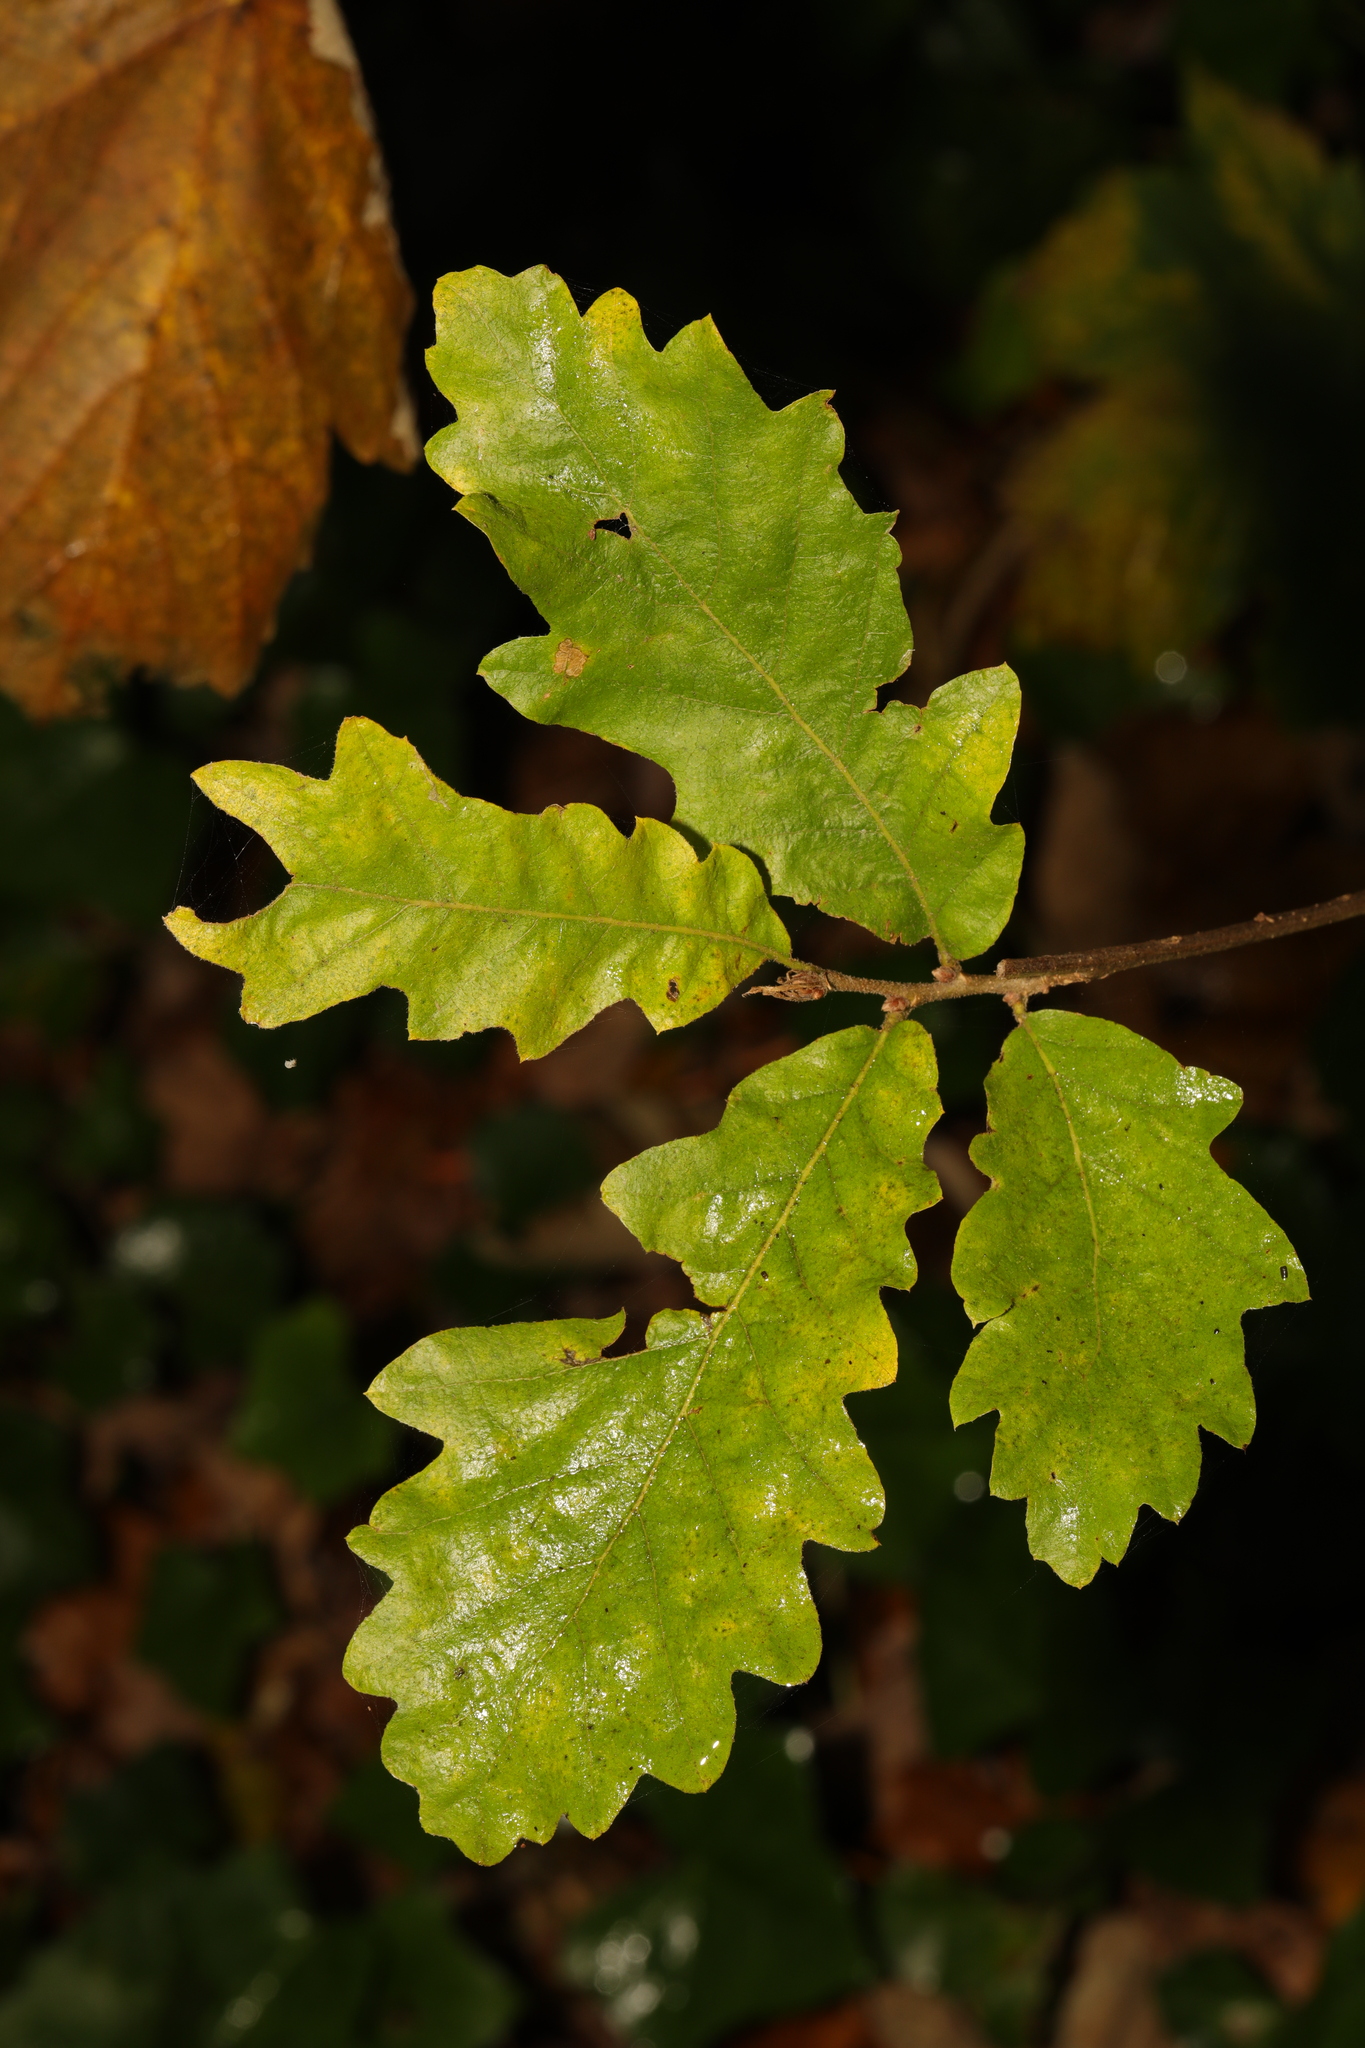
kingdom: Plantae
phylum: Tracheophyta
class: Magnoliopsida
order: Fagales
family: Fagaceae
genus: Quercus
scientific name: Quercus robur
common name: Pedunculate oak
